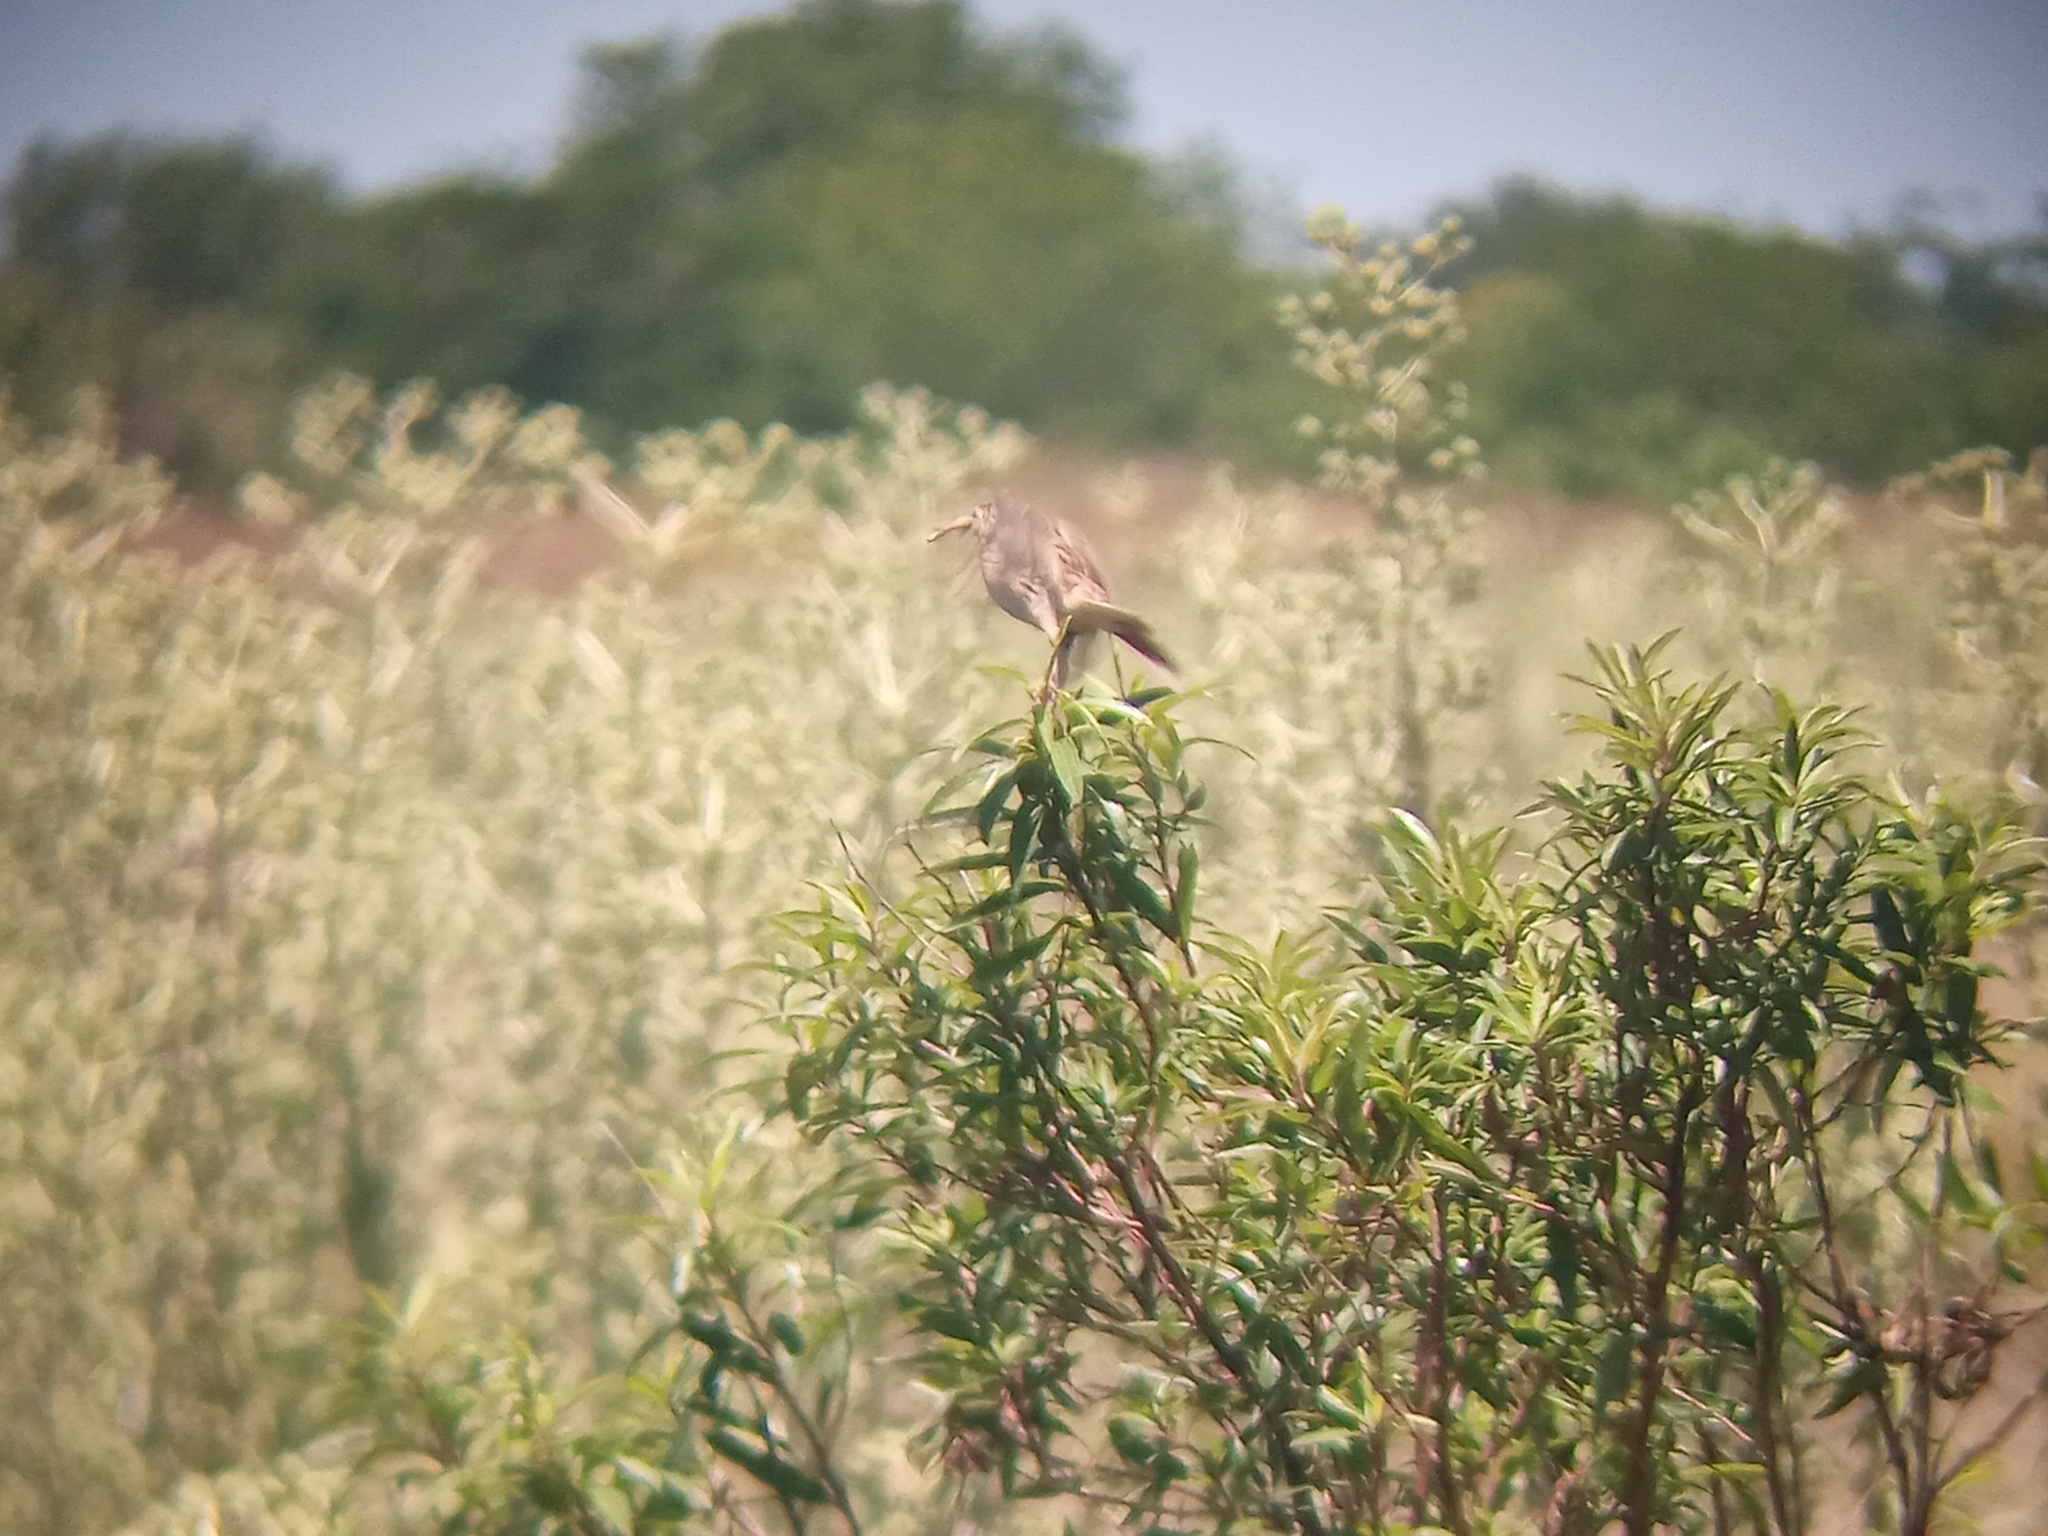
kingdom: Animalia
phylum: Chordata
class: Aves
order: Passeriformes
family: Motacillidae
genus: Anthus
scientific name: Anthus hellmayri
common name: Hellmayr's pipit
